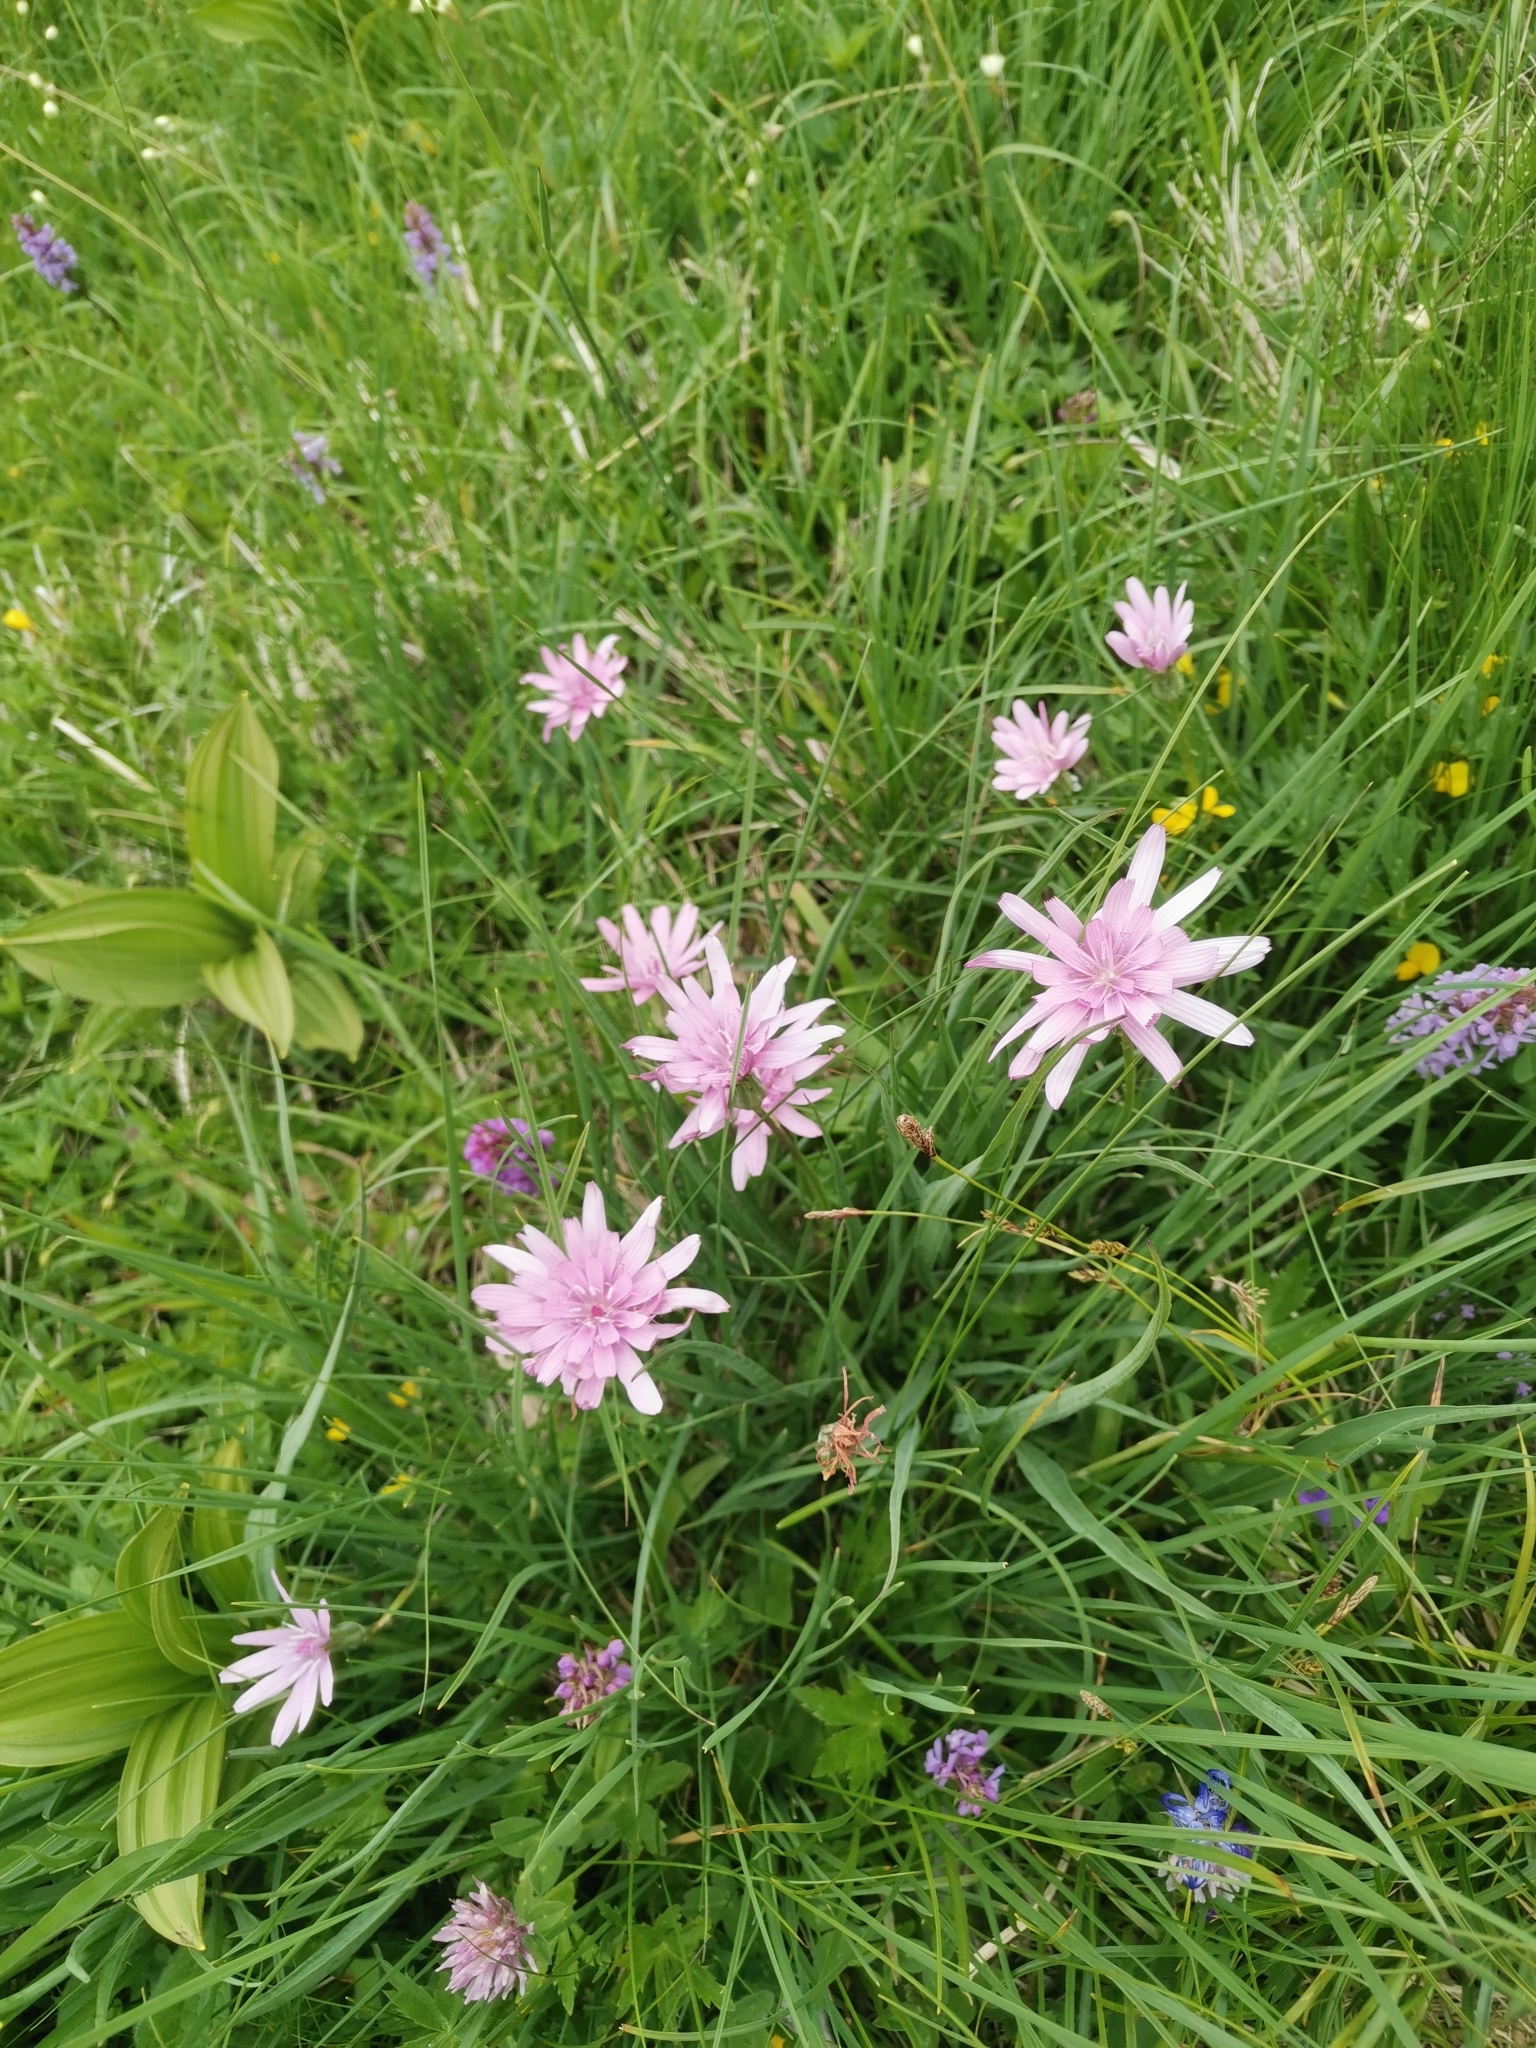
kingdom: Plantae
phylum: Tracheophyta
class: Magnoliopsida
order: Asterales
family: Asteraceae
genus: Scorzonera
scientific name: Scorzonera rosea
